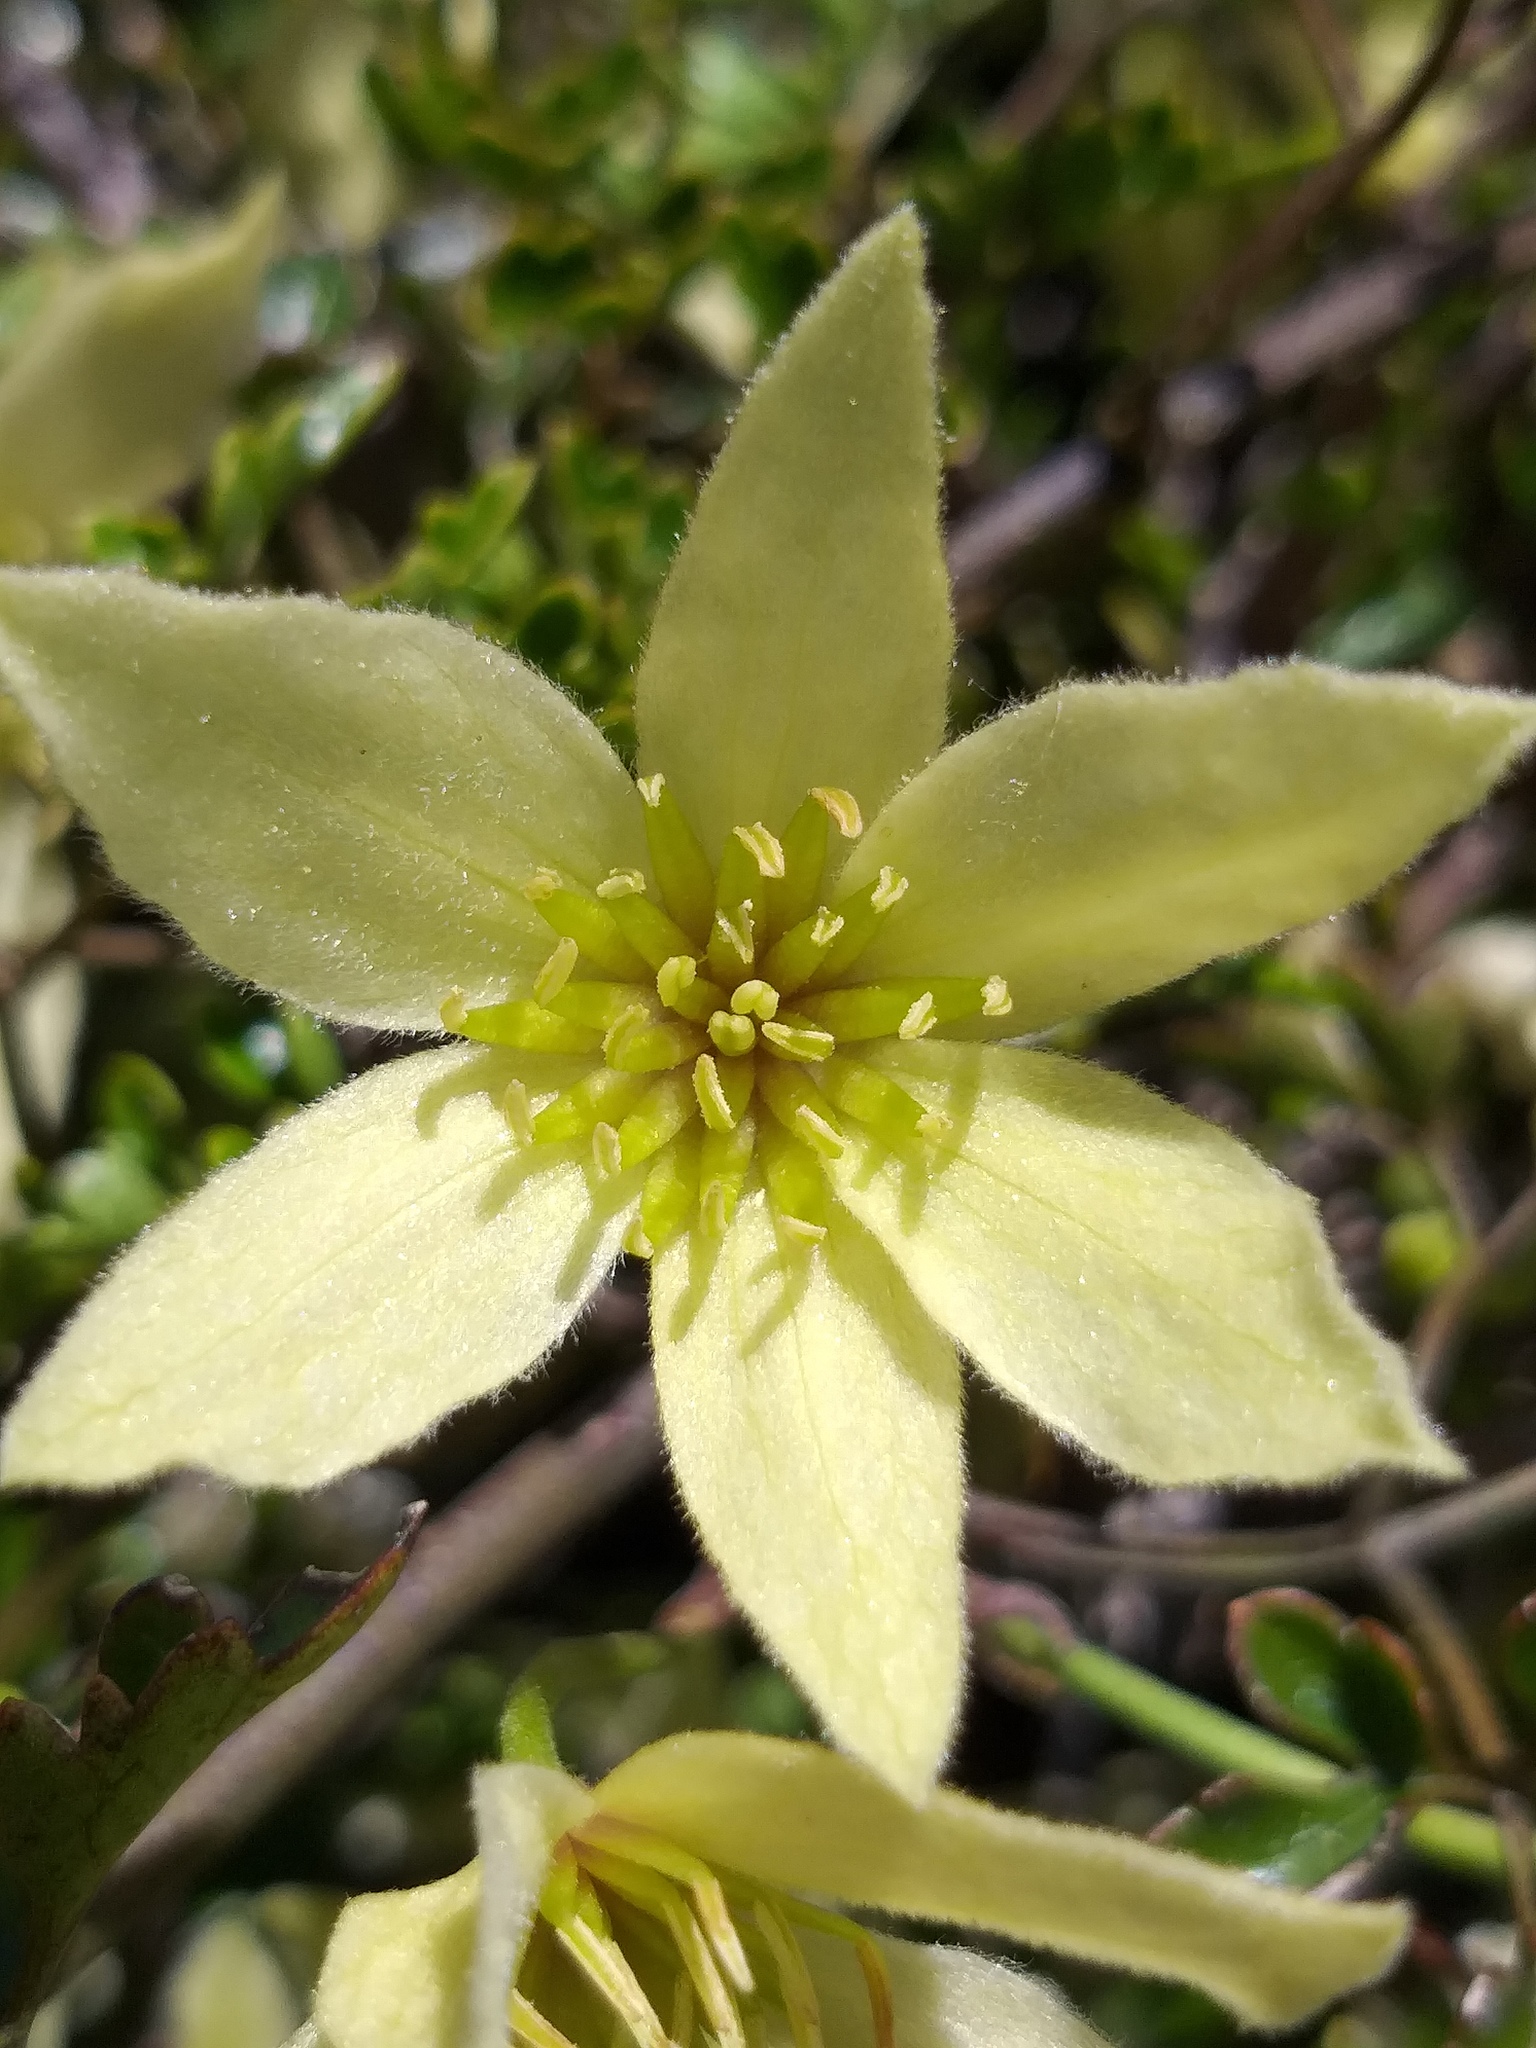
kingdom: Plantae
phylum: Tracheophyta
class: Magnoliopsida
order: Ranunculales
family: Ranunculaceae
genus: Clematis
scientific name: Clematis forsteri
